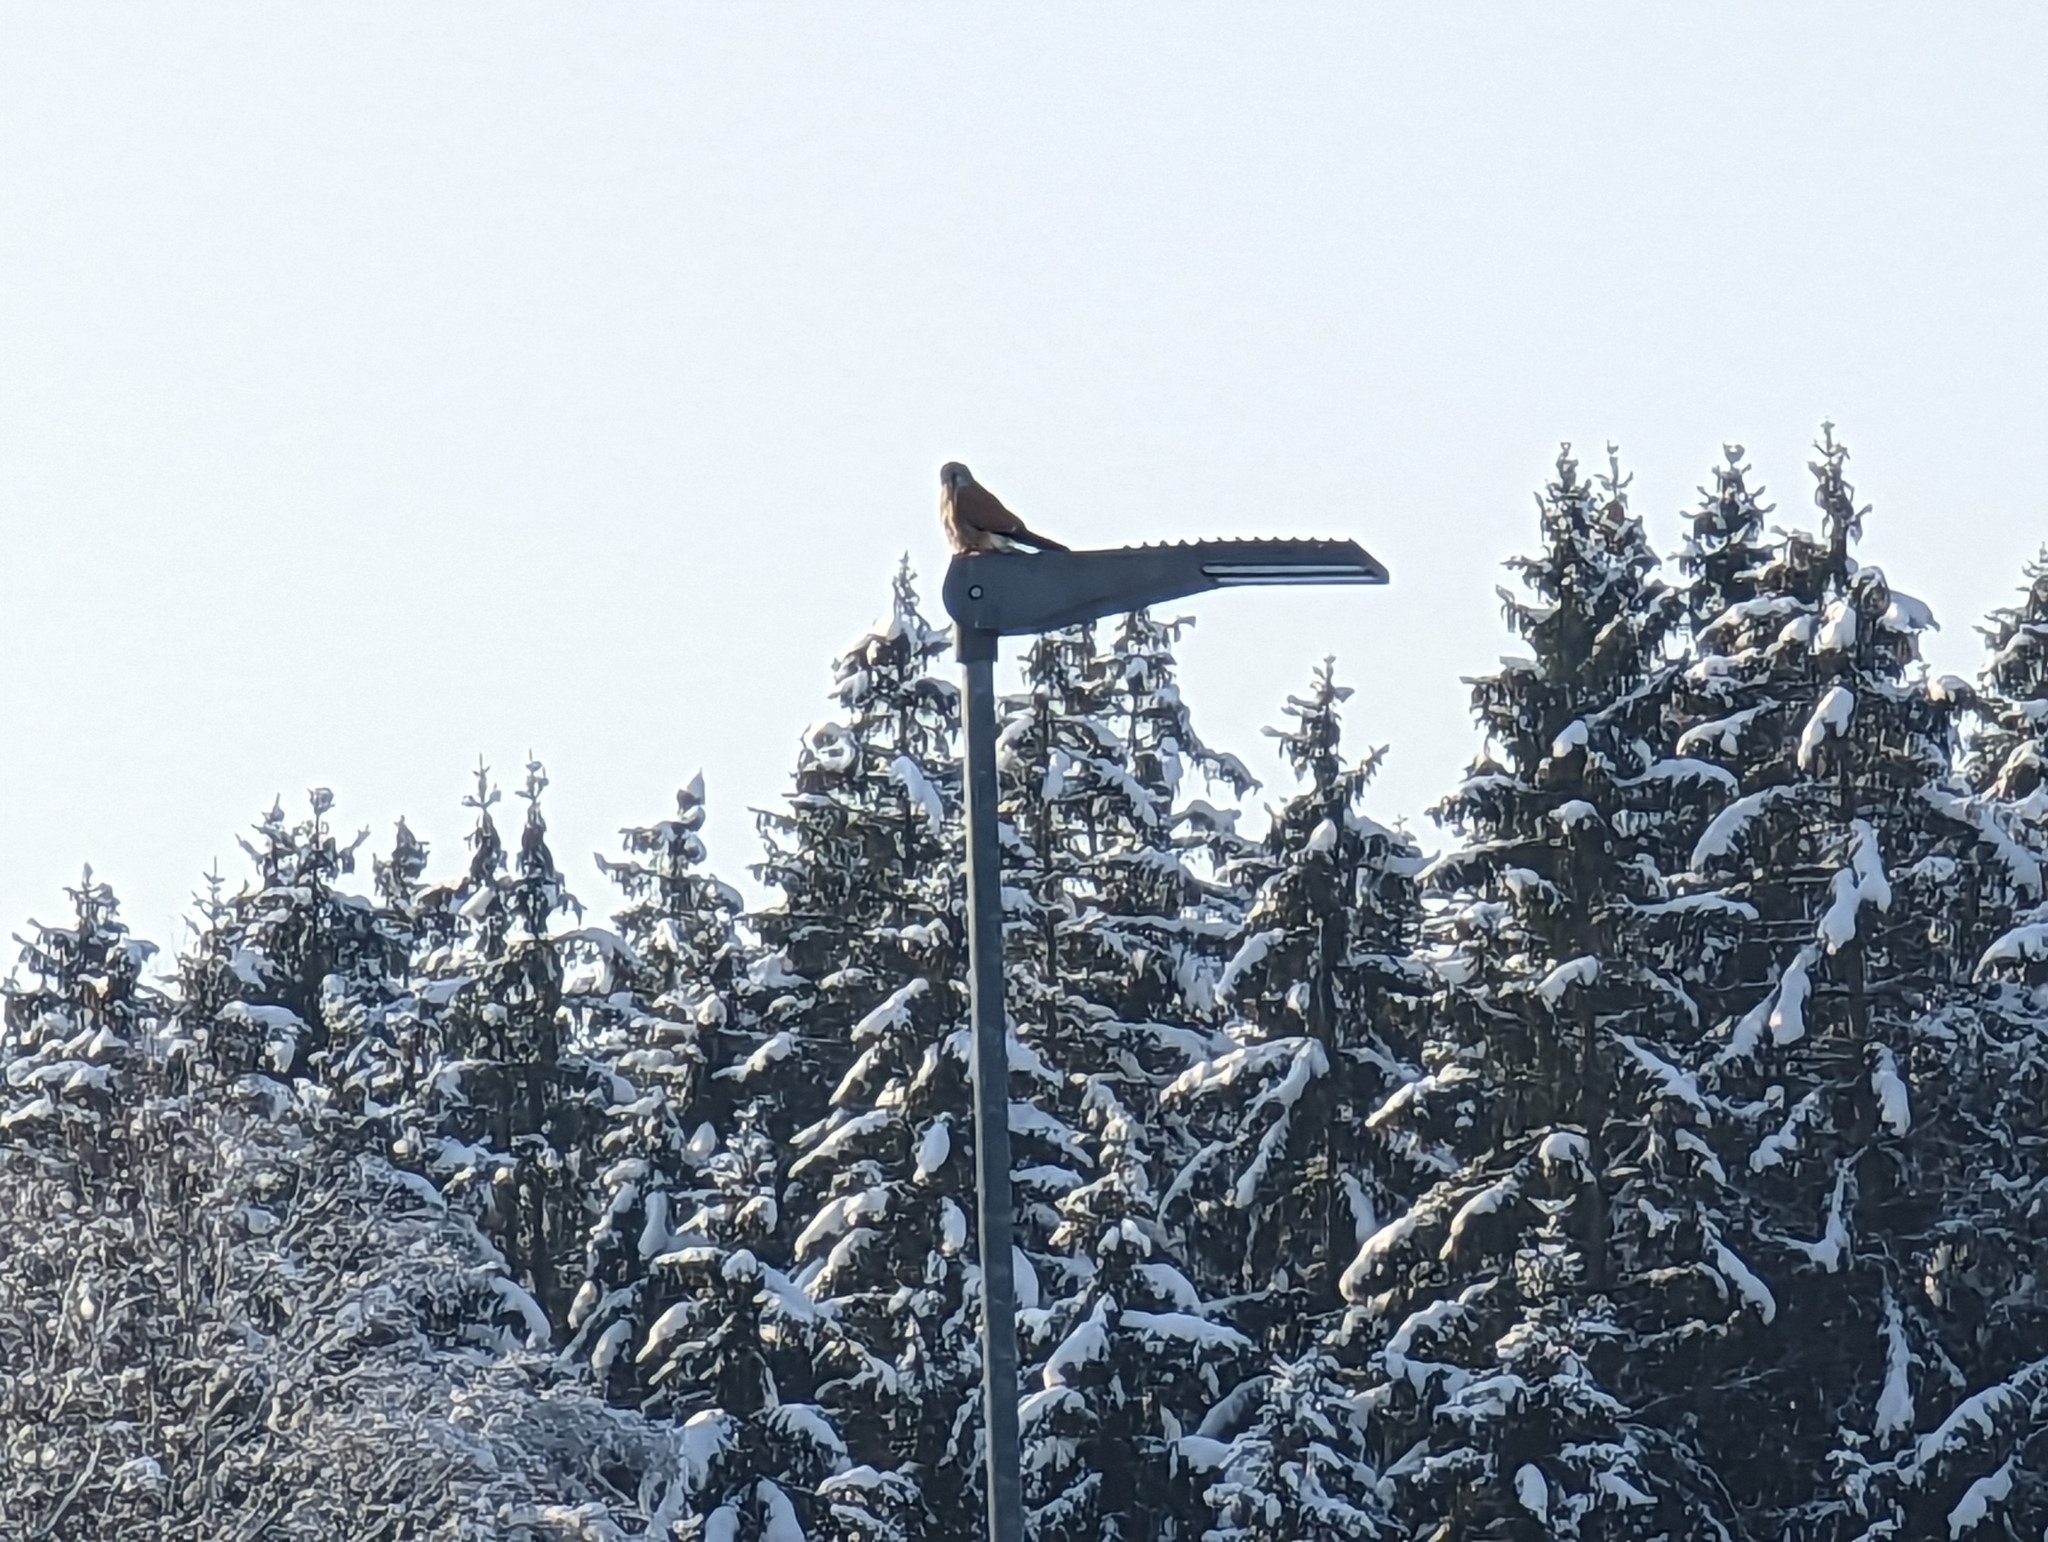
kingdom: Animalia
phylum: Chordata
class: Aves
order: Falconiformes
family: Falconidae
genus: Falco
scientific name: Falco tinnunculus
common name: Common kestrel
